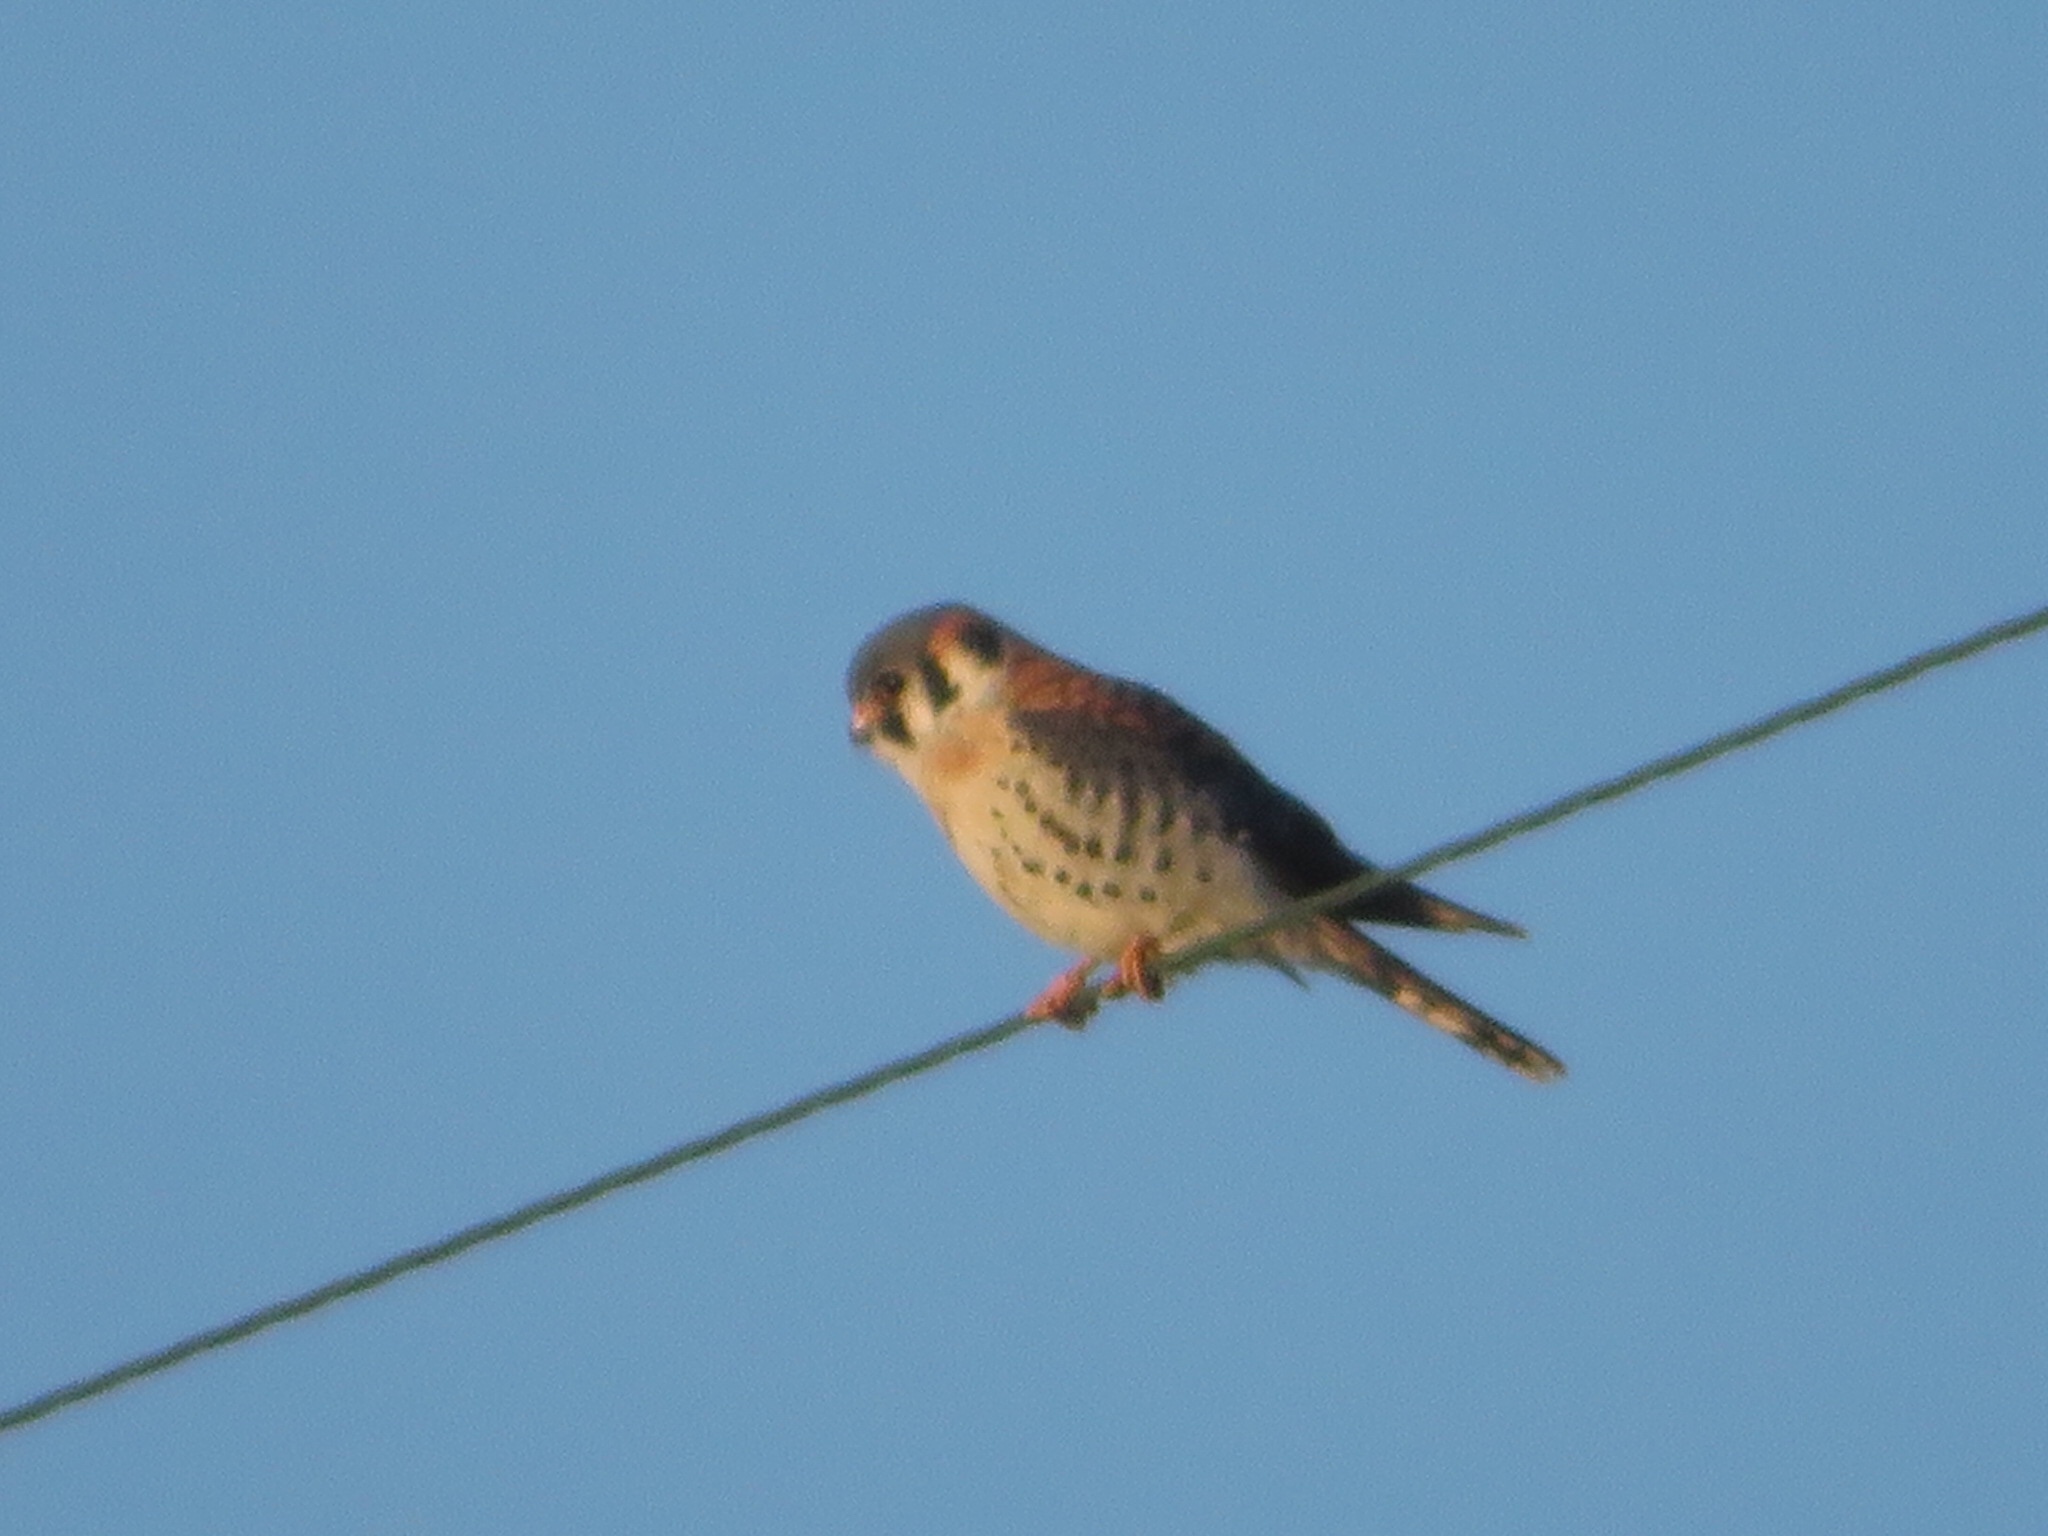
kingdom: Animalia
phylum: Chordata
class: Aves
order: Falconiformes
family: Falconidae
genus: Falco
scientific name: Falco sparverius
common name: American kestrel
